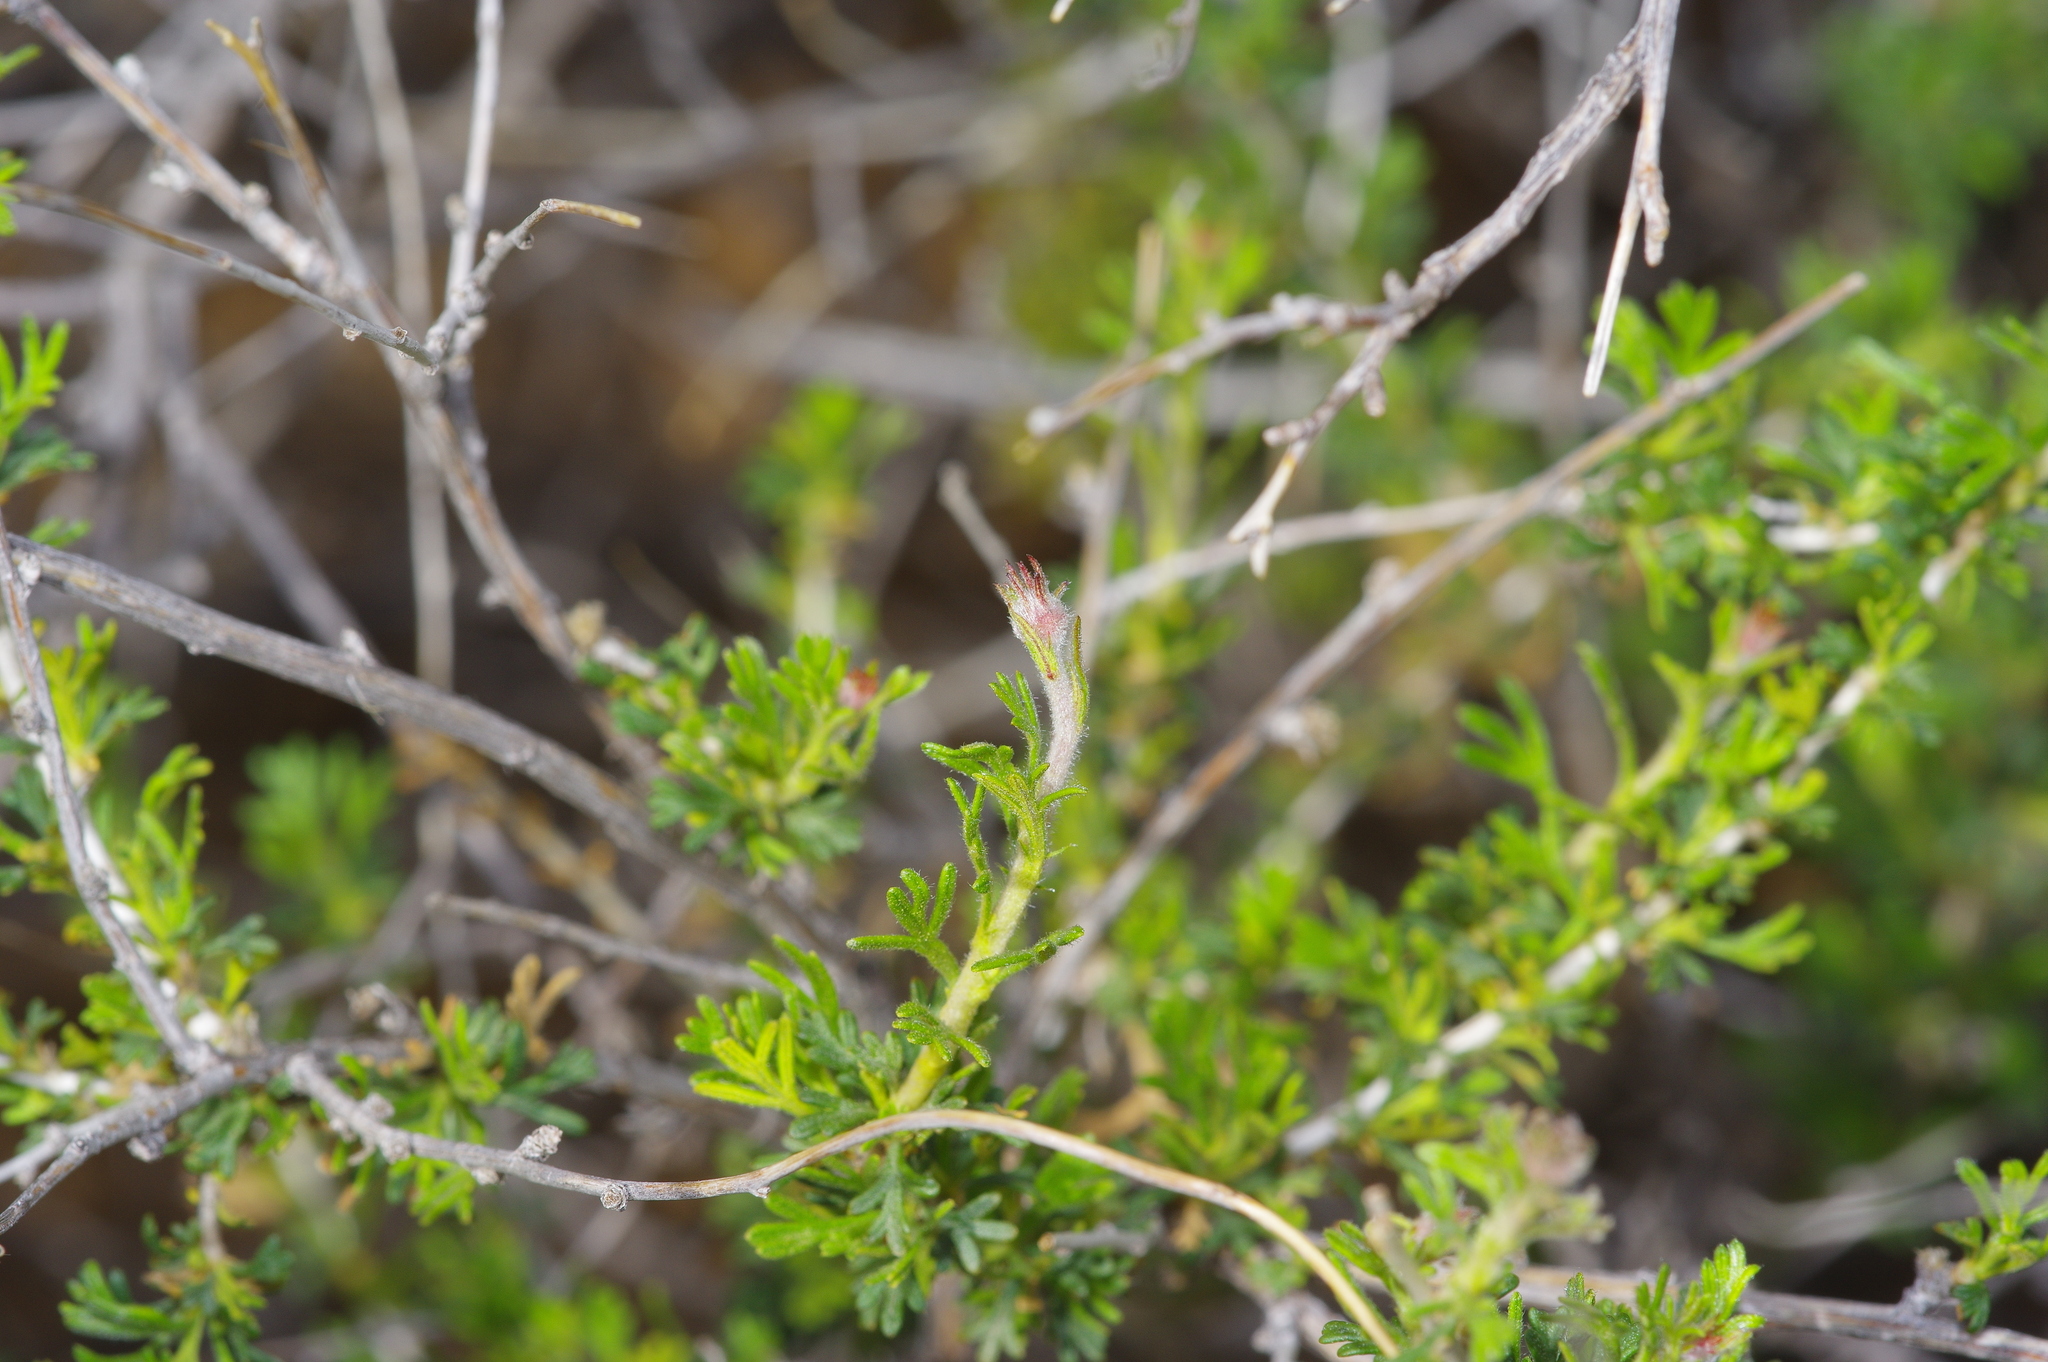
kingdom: Plantae
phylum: Tracheophyta
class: Magnoliopsida
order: Rosales
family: Rosaceae
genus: Fallugia
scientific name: Fallugia paradoxa
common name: Apache-plume
